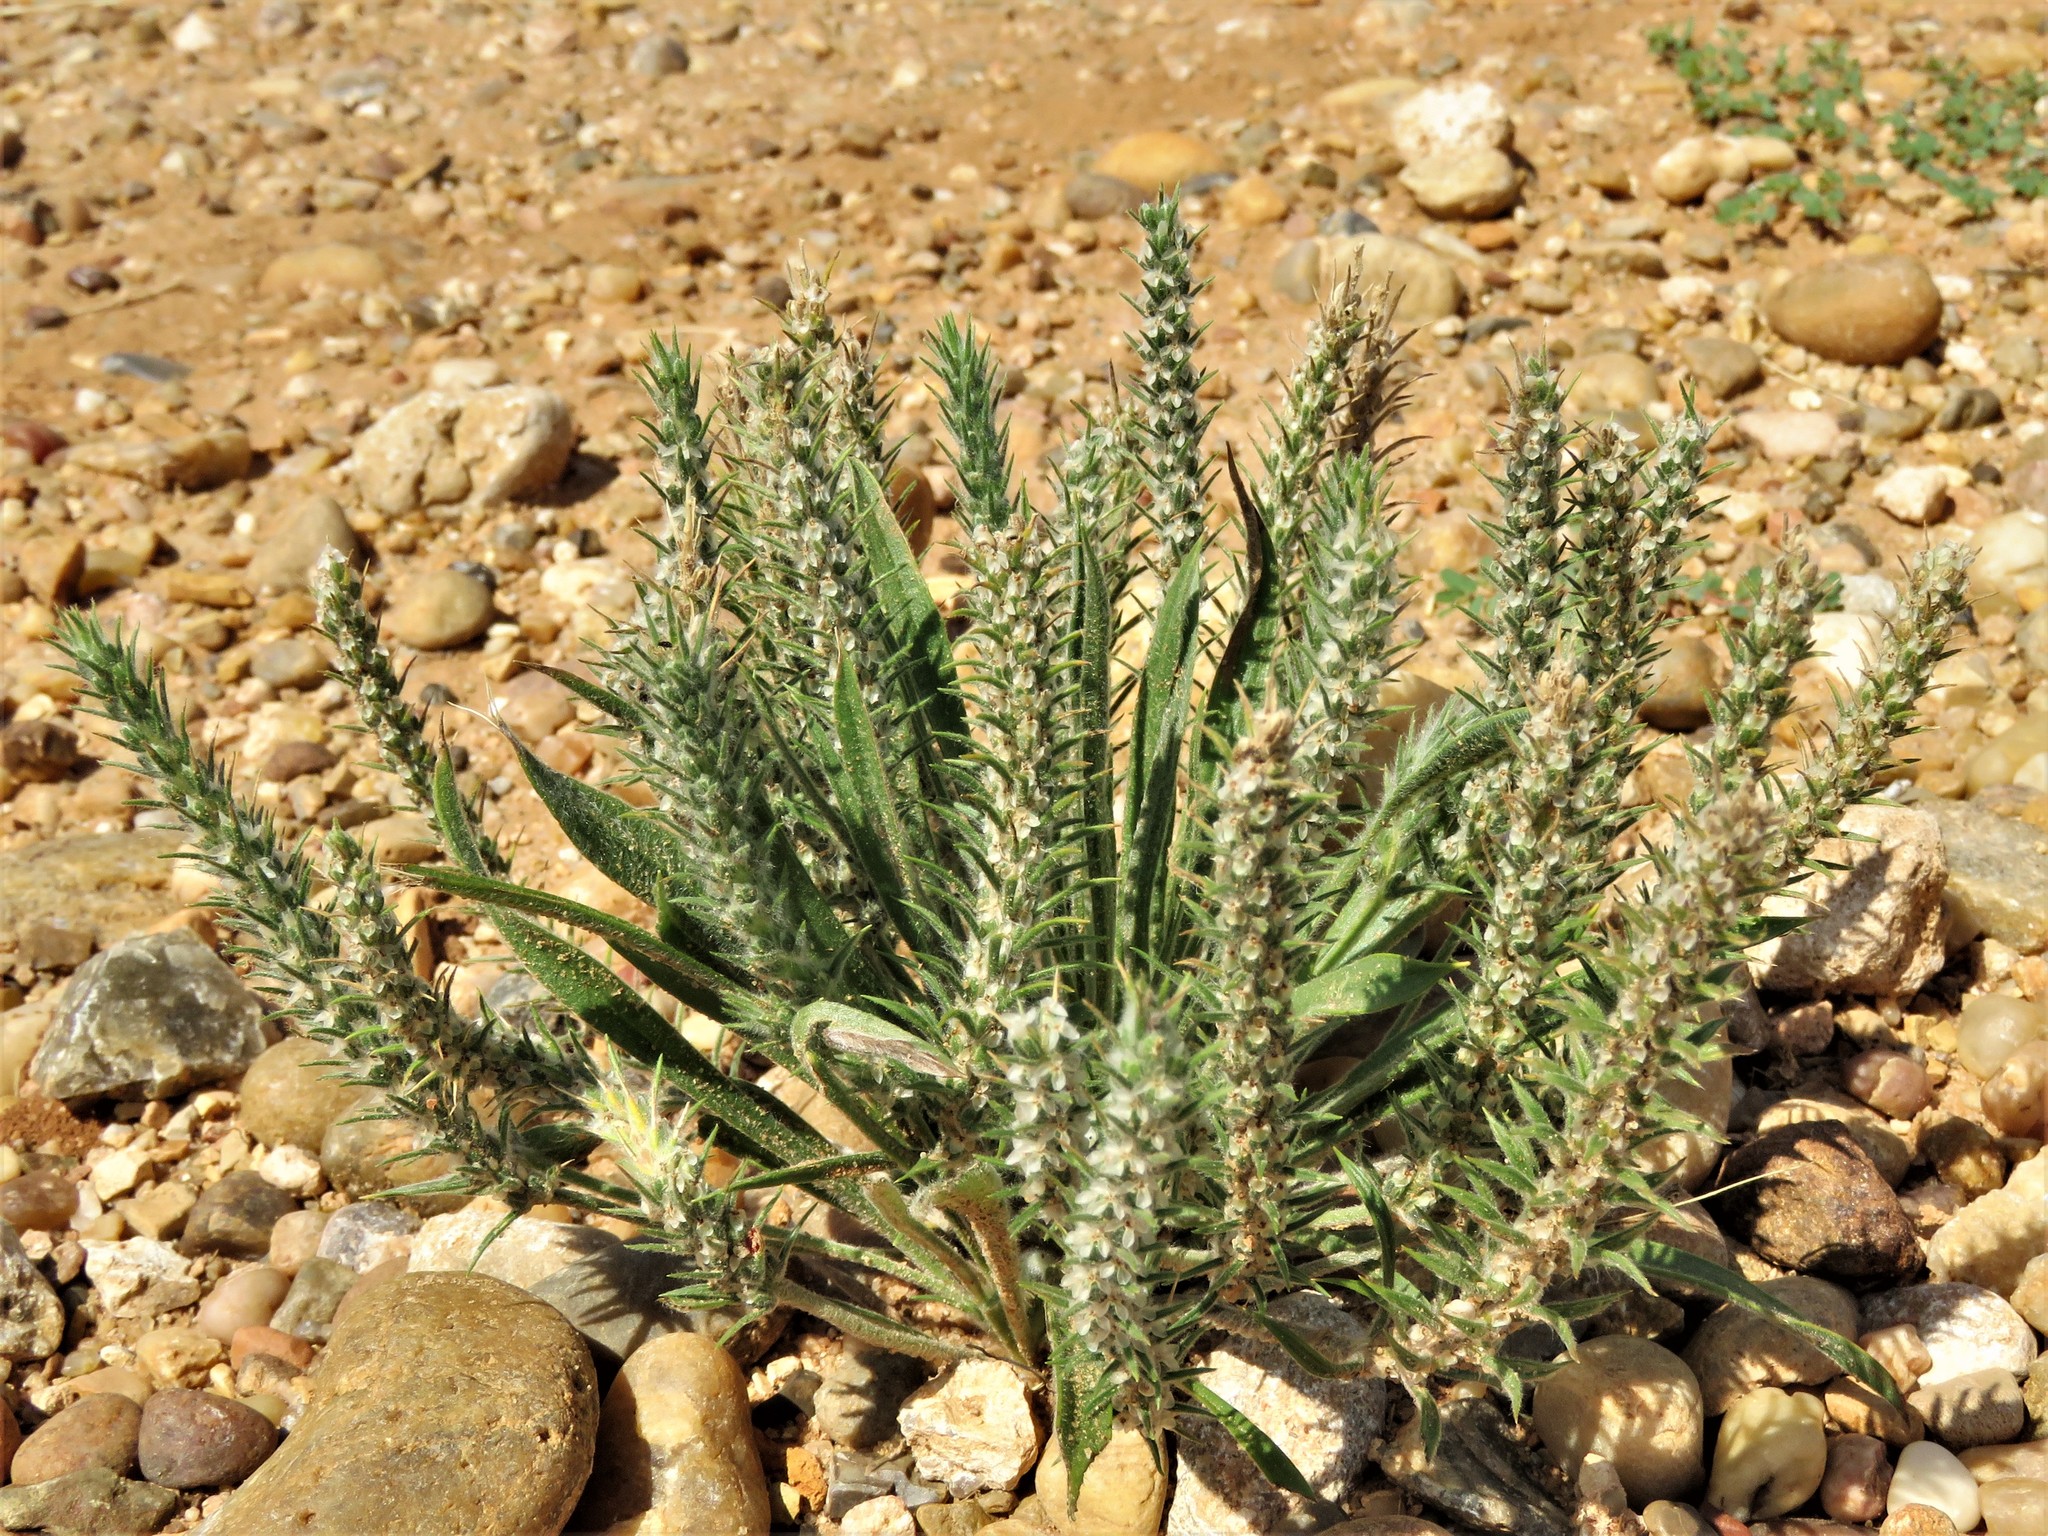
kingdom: Plantae
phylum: Tracheophyta
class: Magnoliopsida
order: Lamiales
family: Plantaginaceae
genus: Plantago
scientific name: Plantago patagonica
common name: Patagonia indian-wheat
